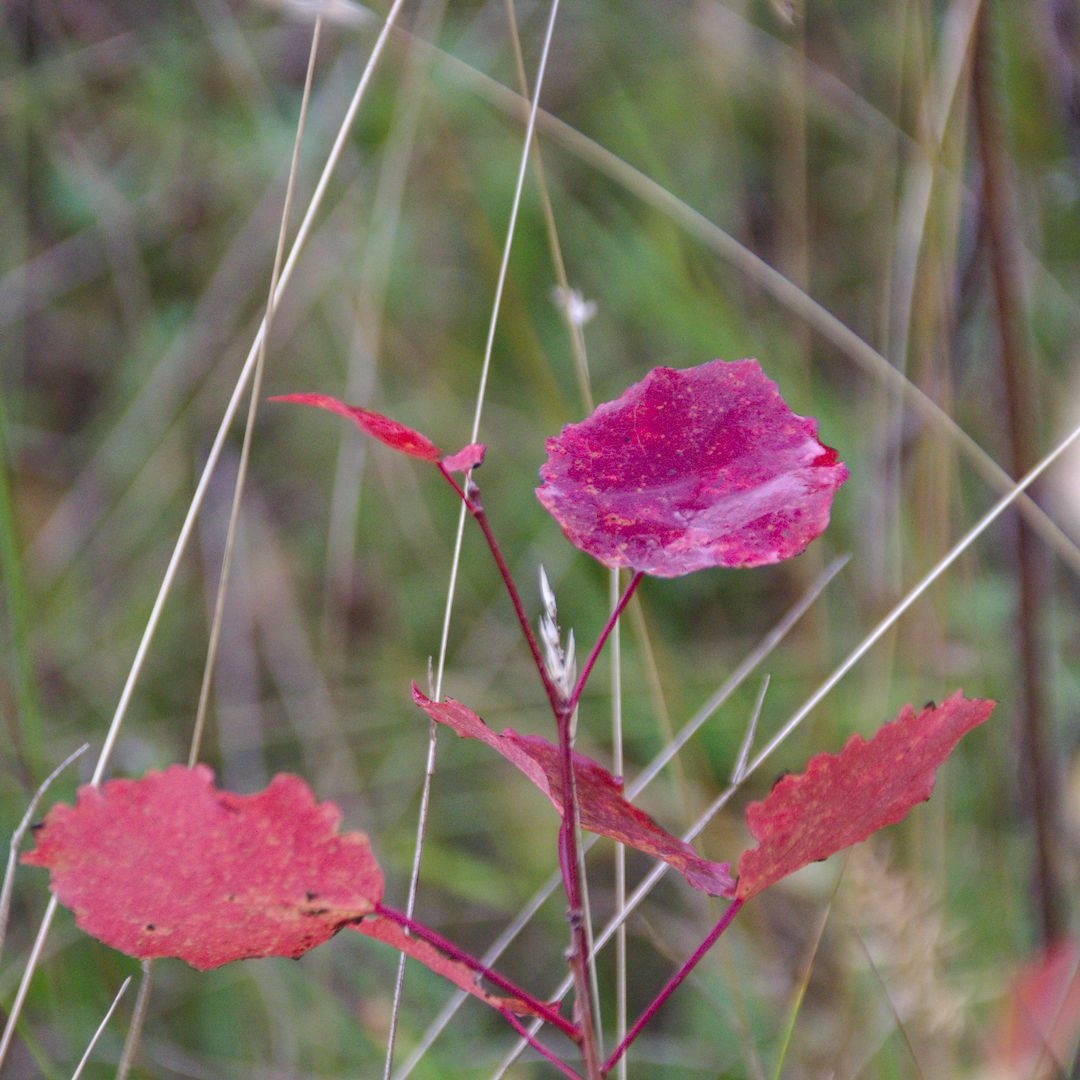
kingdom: Plantae
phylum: Tracheophyta
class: Magnoliopsida
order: Malpighiales
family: Salicaceae
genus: Populus
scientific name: Populus tremula
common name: European aspen
